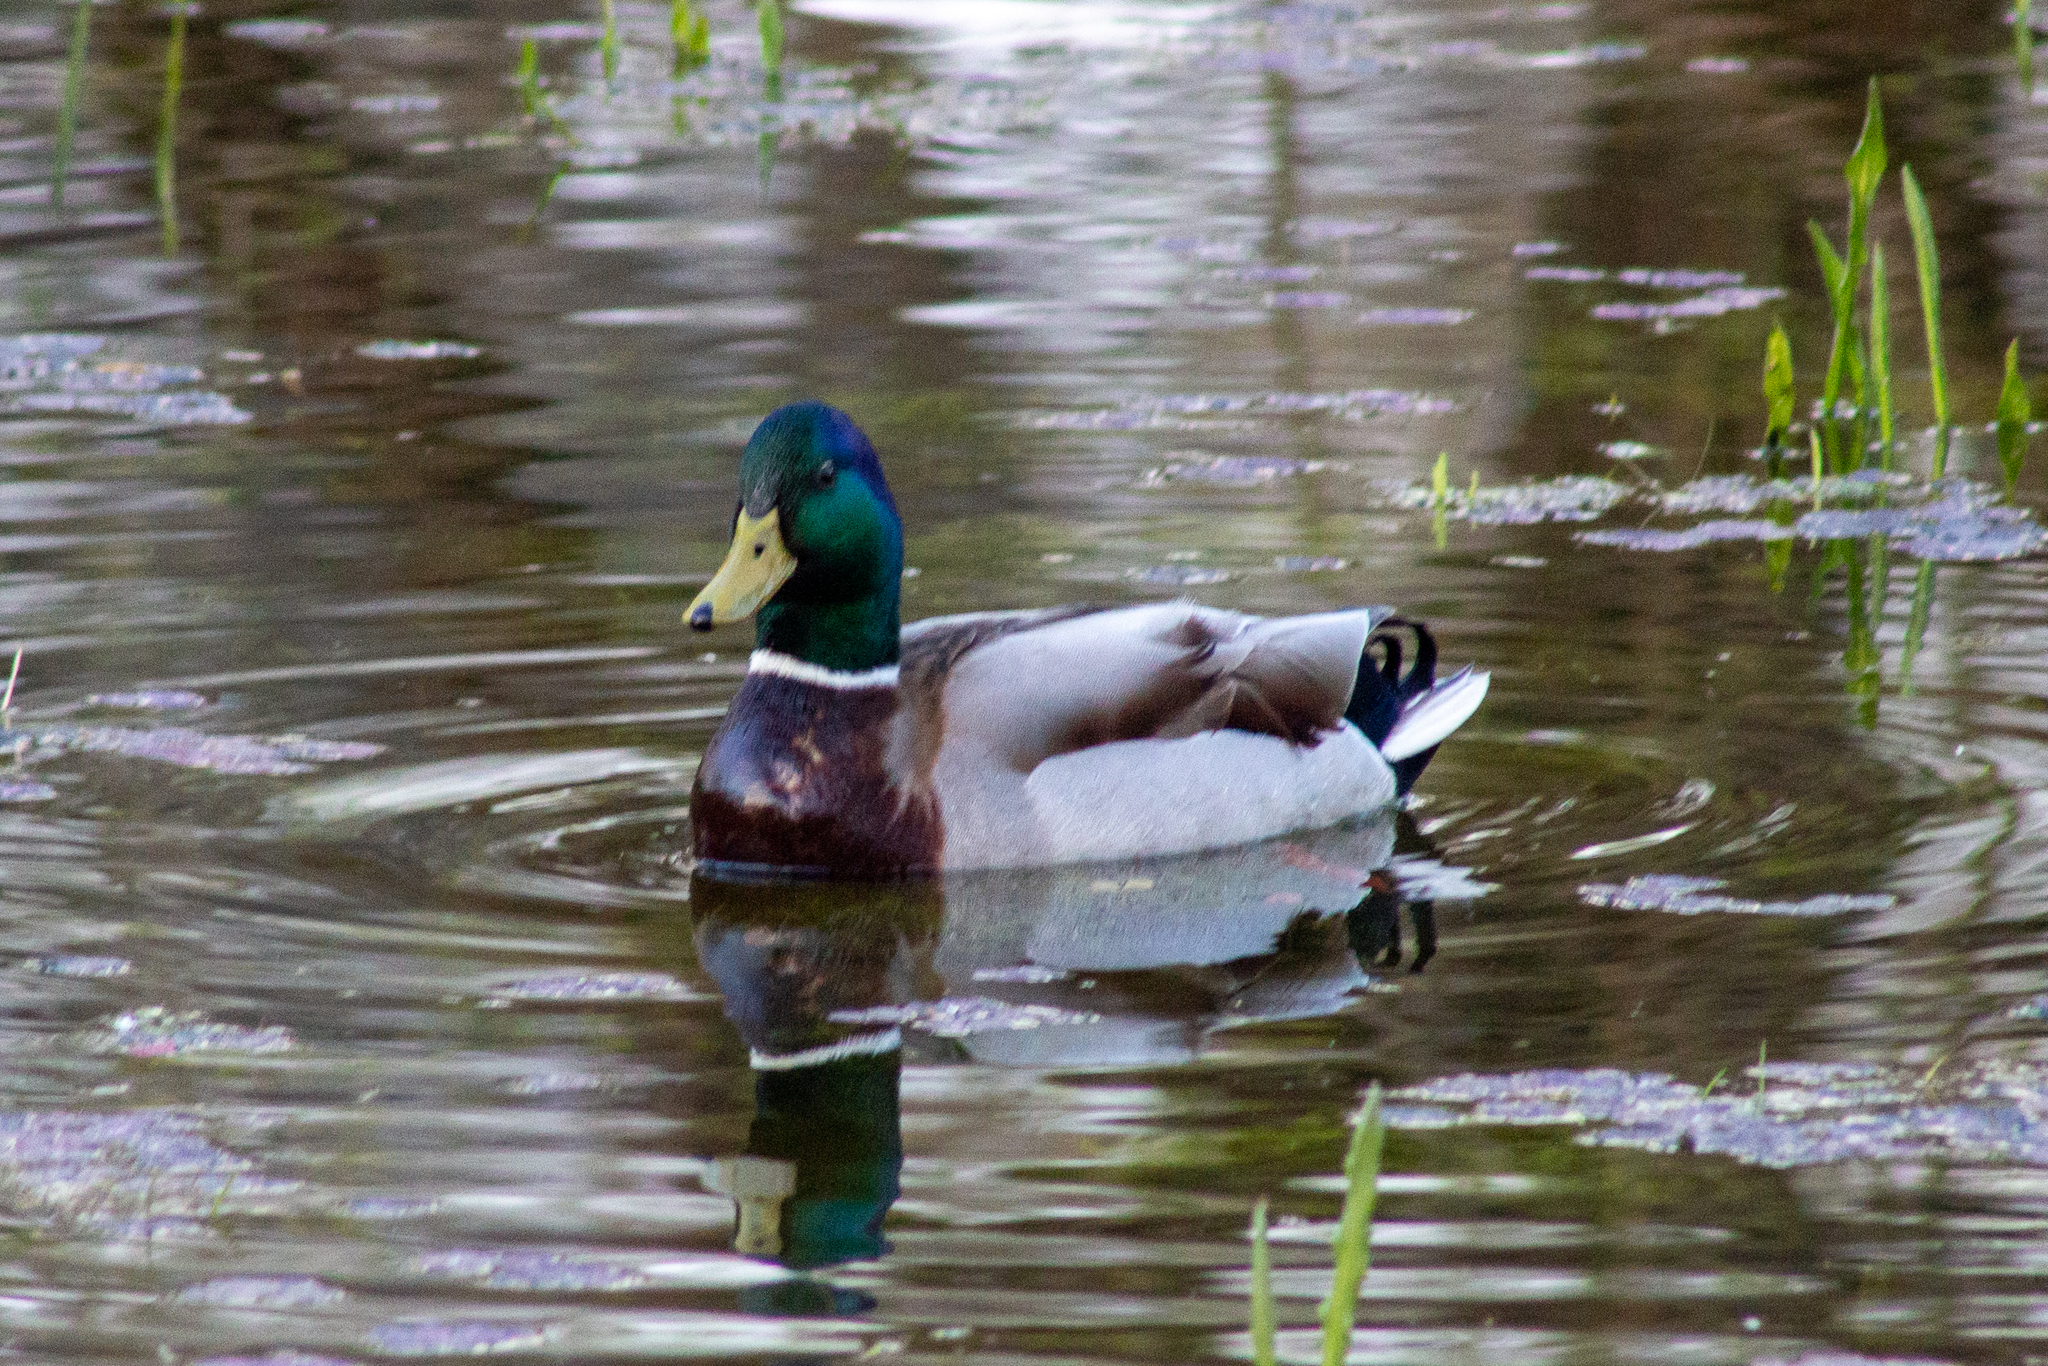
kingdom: Animalia
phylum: Chordata
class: Aves
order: Anseriformes
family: Anatidae
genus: Anas
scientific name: Anas platyrhynchos
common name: Mallard
